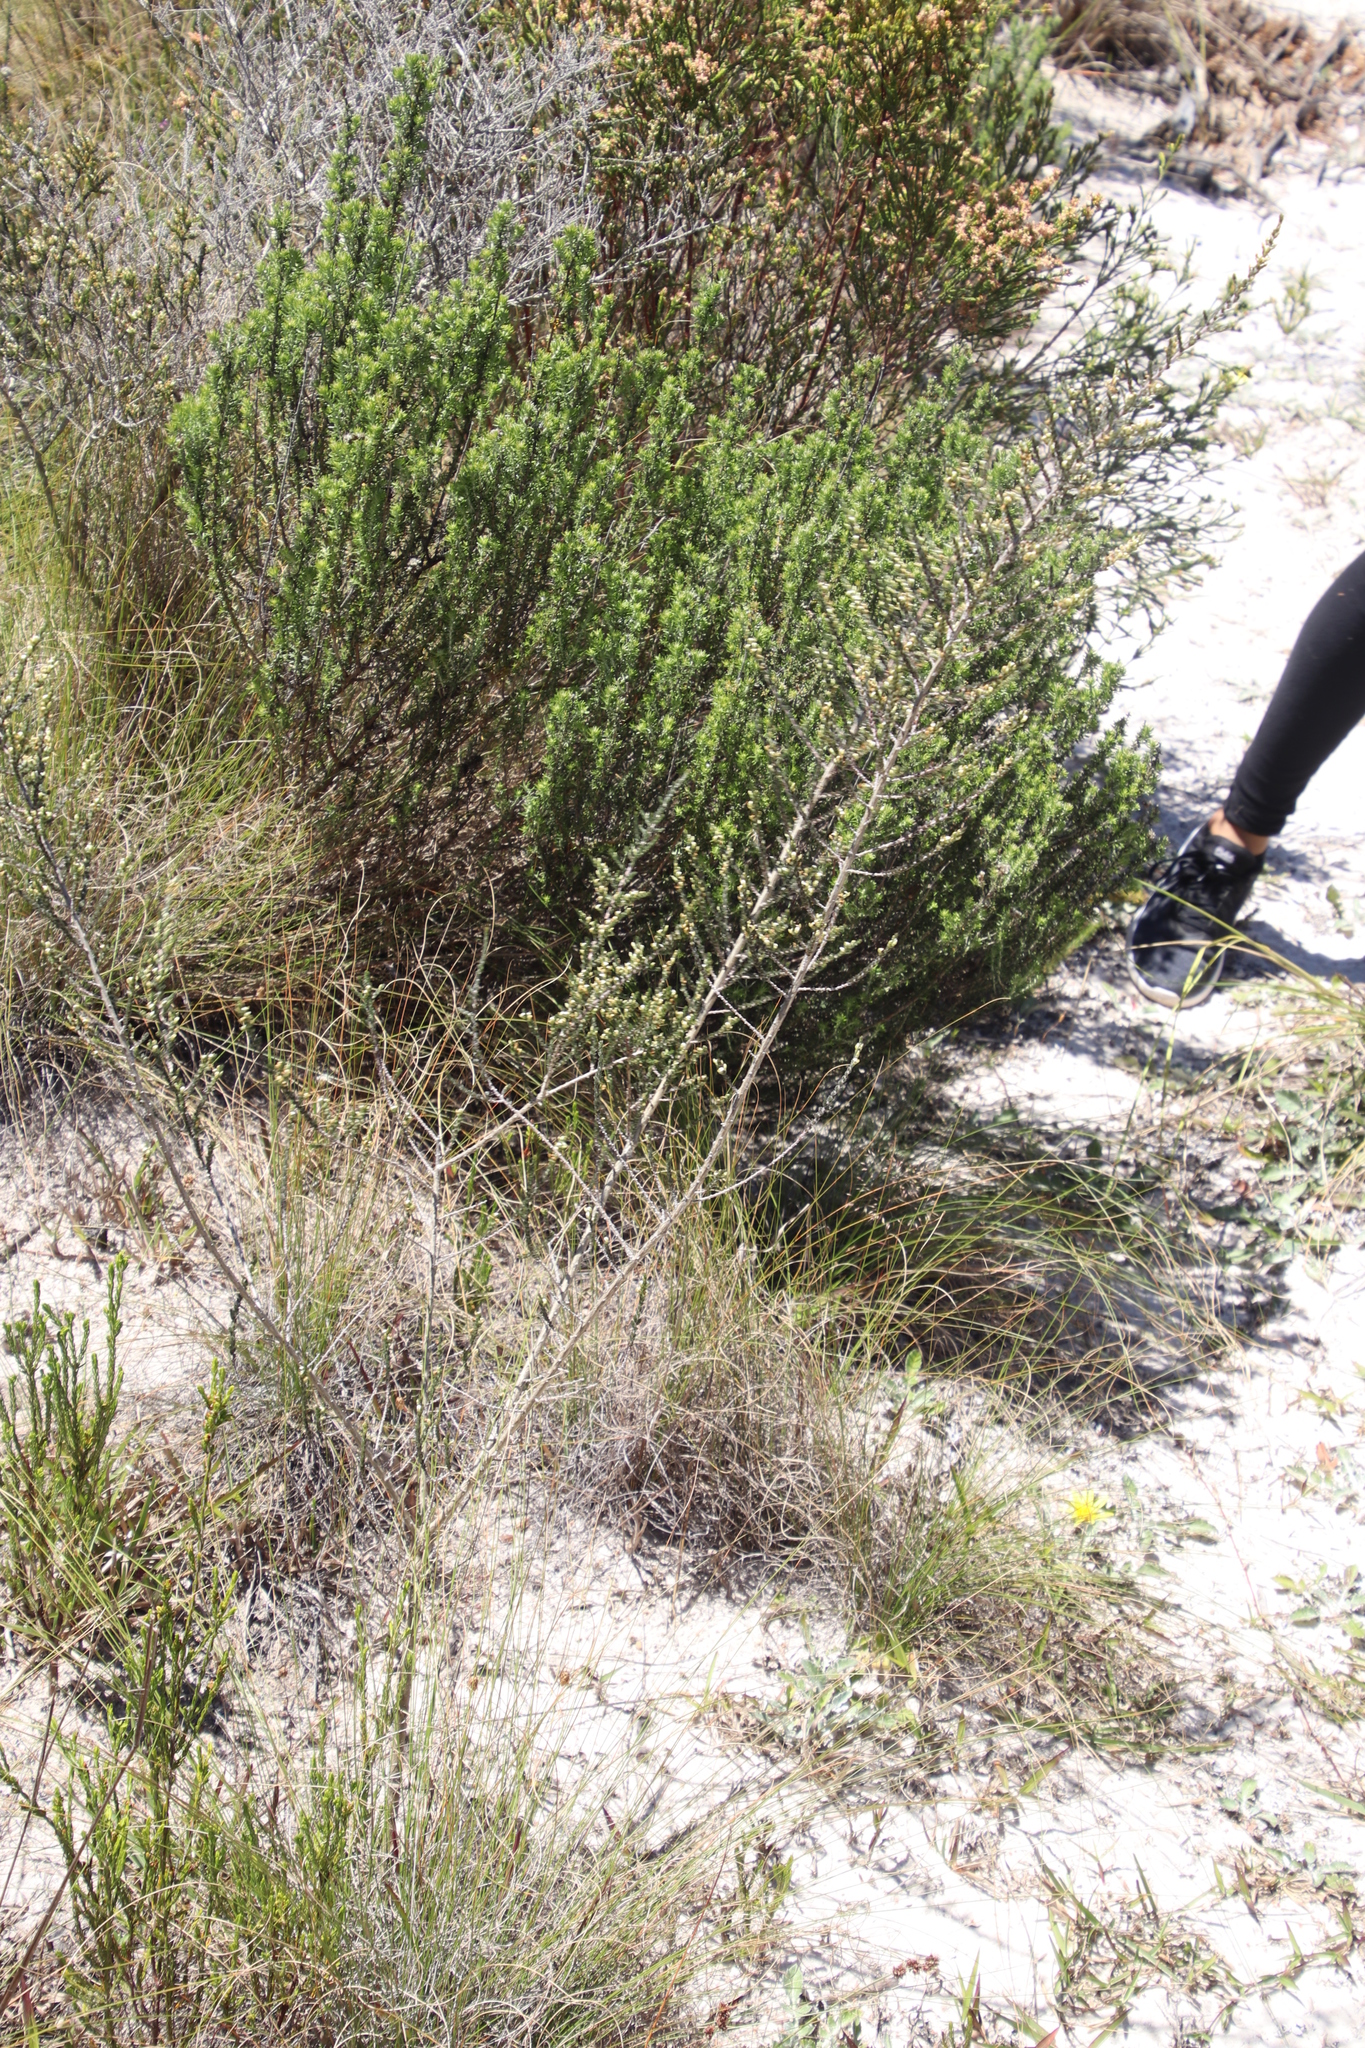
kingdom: Plantae
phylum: Tracheophyta
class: Magnoliopsida
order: Fabales
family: Fabaceae
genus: Aspalathus
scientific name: Aspalathus hispida
